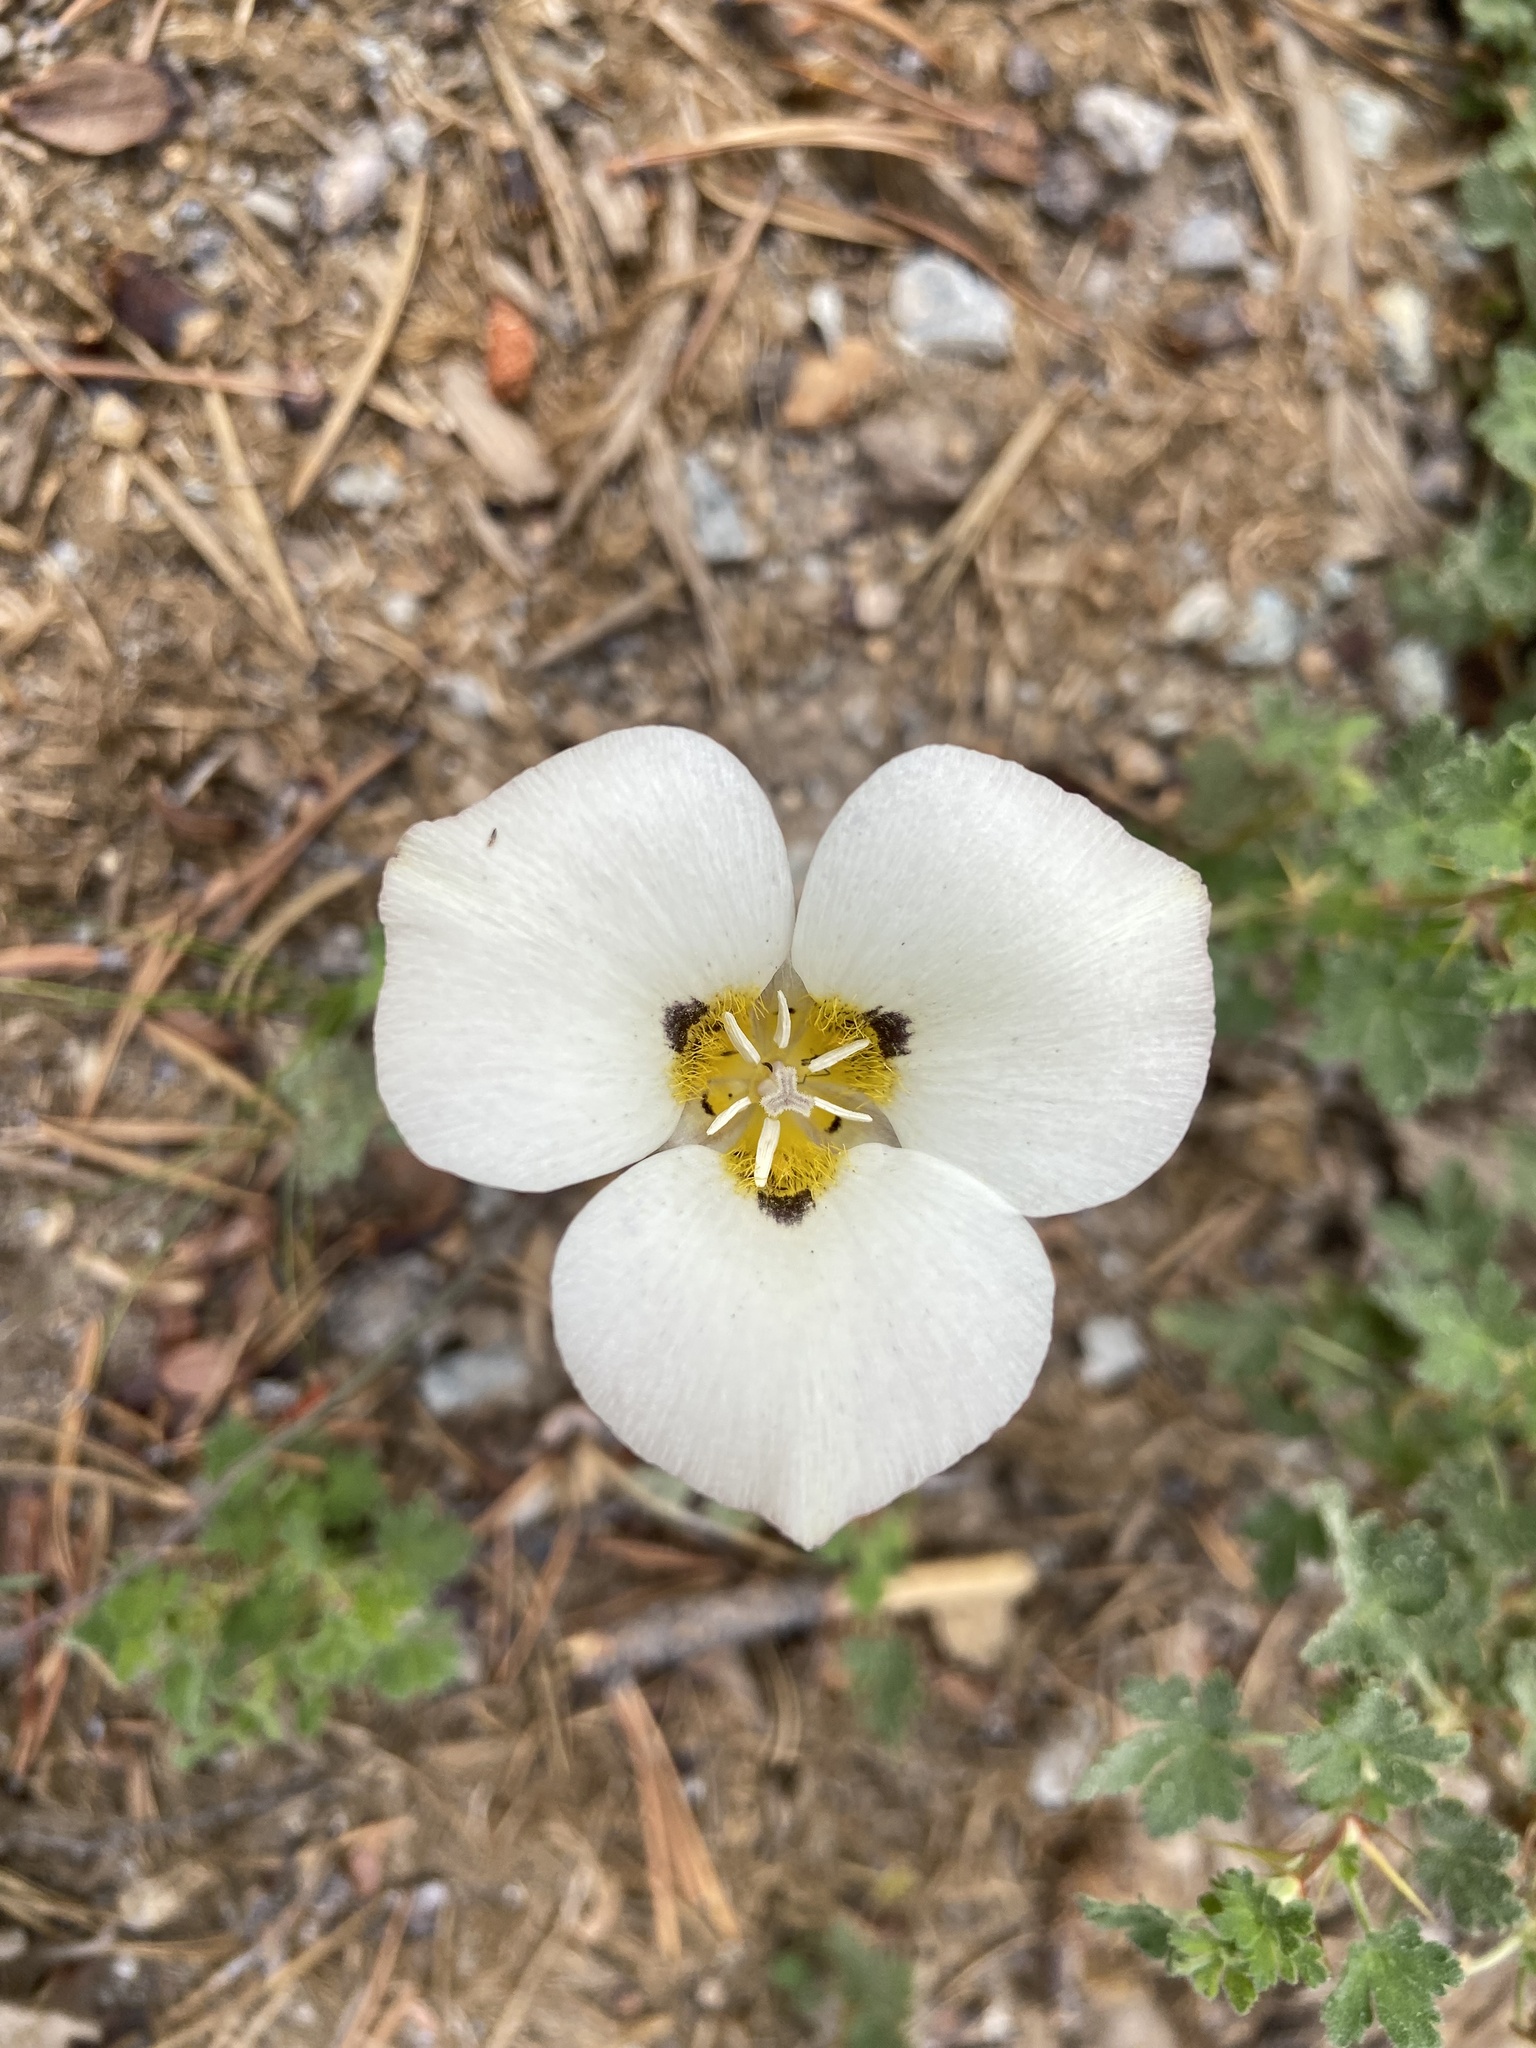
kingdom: Plantae
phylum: Tracheophyta
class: Liliopsida
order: Liliales
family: Liliaceae
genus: Calochortus
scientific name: Calochortus leichtlinii
